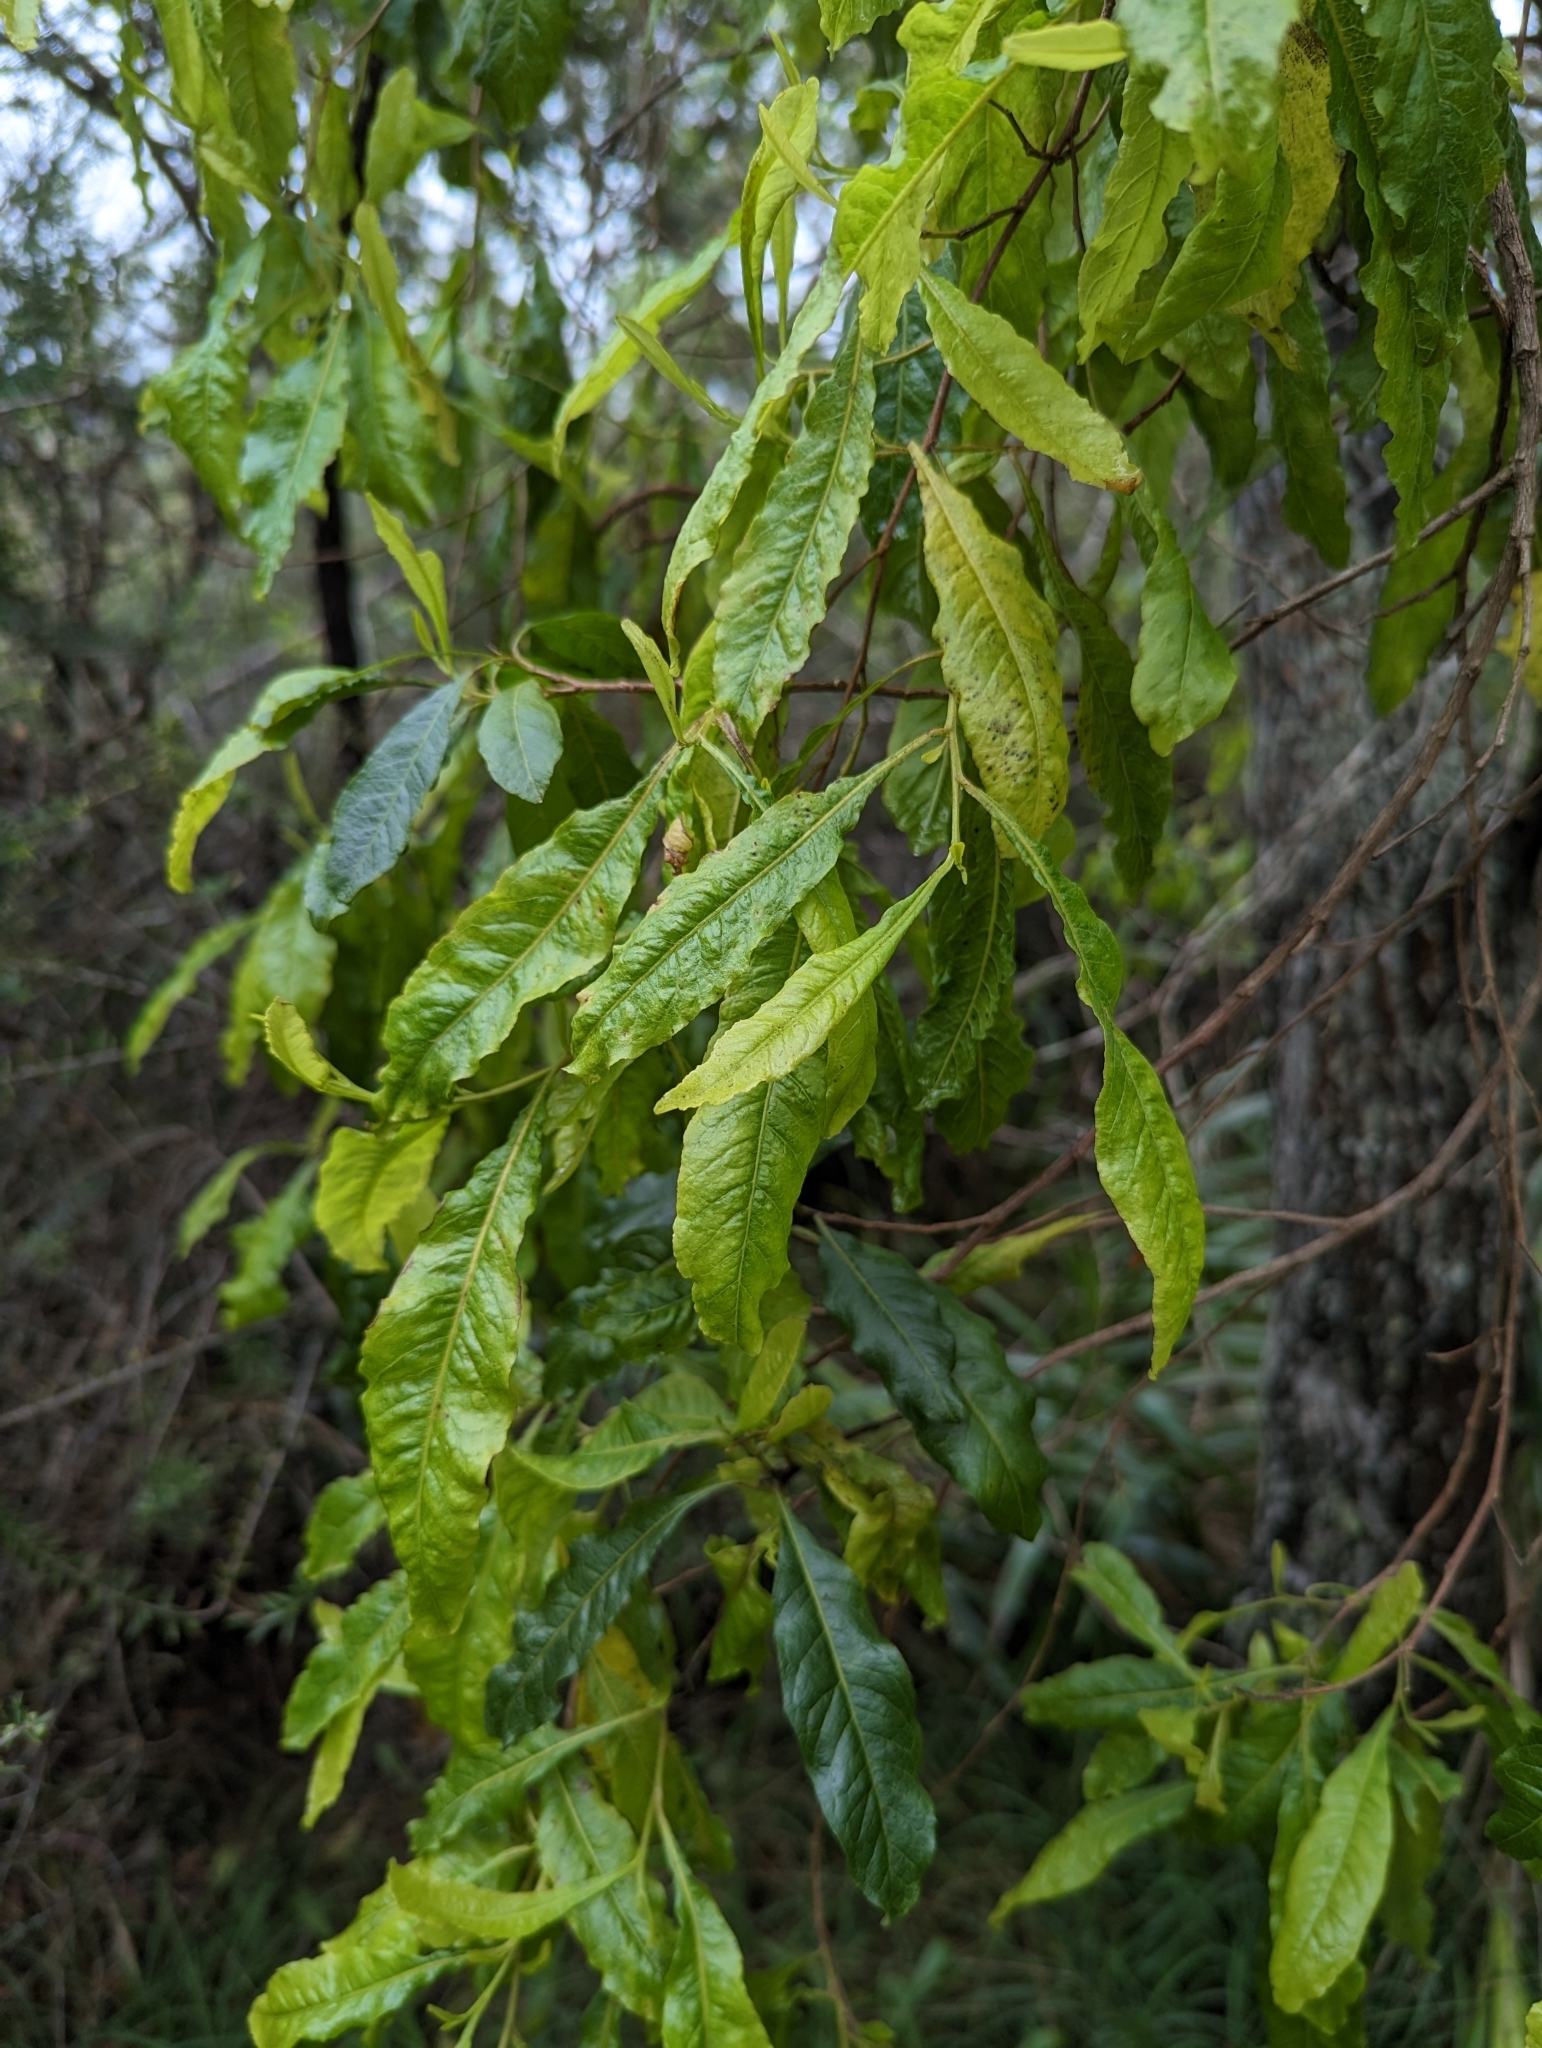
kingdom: Plantae
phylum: Tracheophyta
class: Magnoliopsida
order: Sapindales
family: Sapindaceae
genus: Dodonaea
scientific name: Dodonaea viscosa
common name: Hopbush
